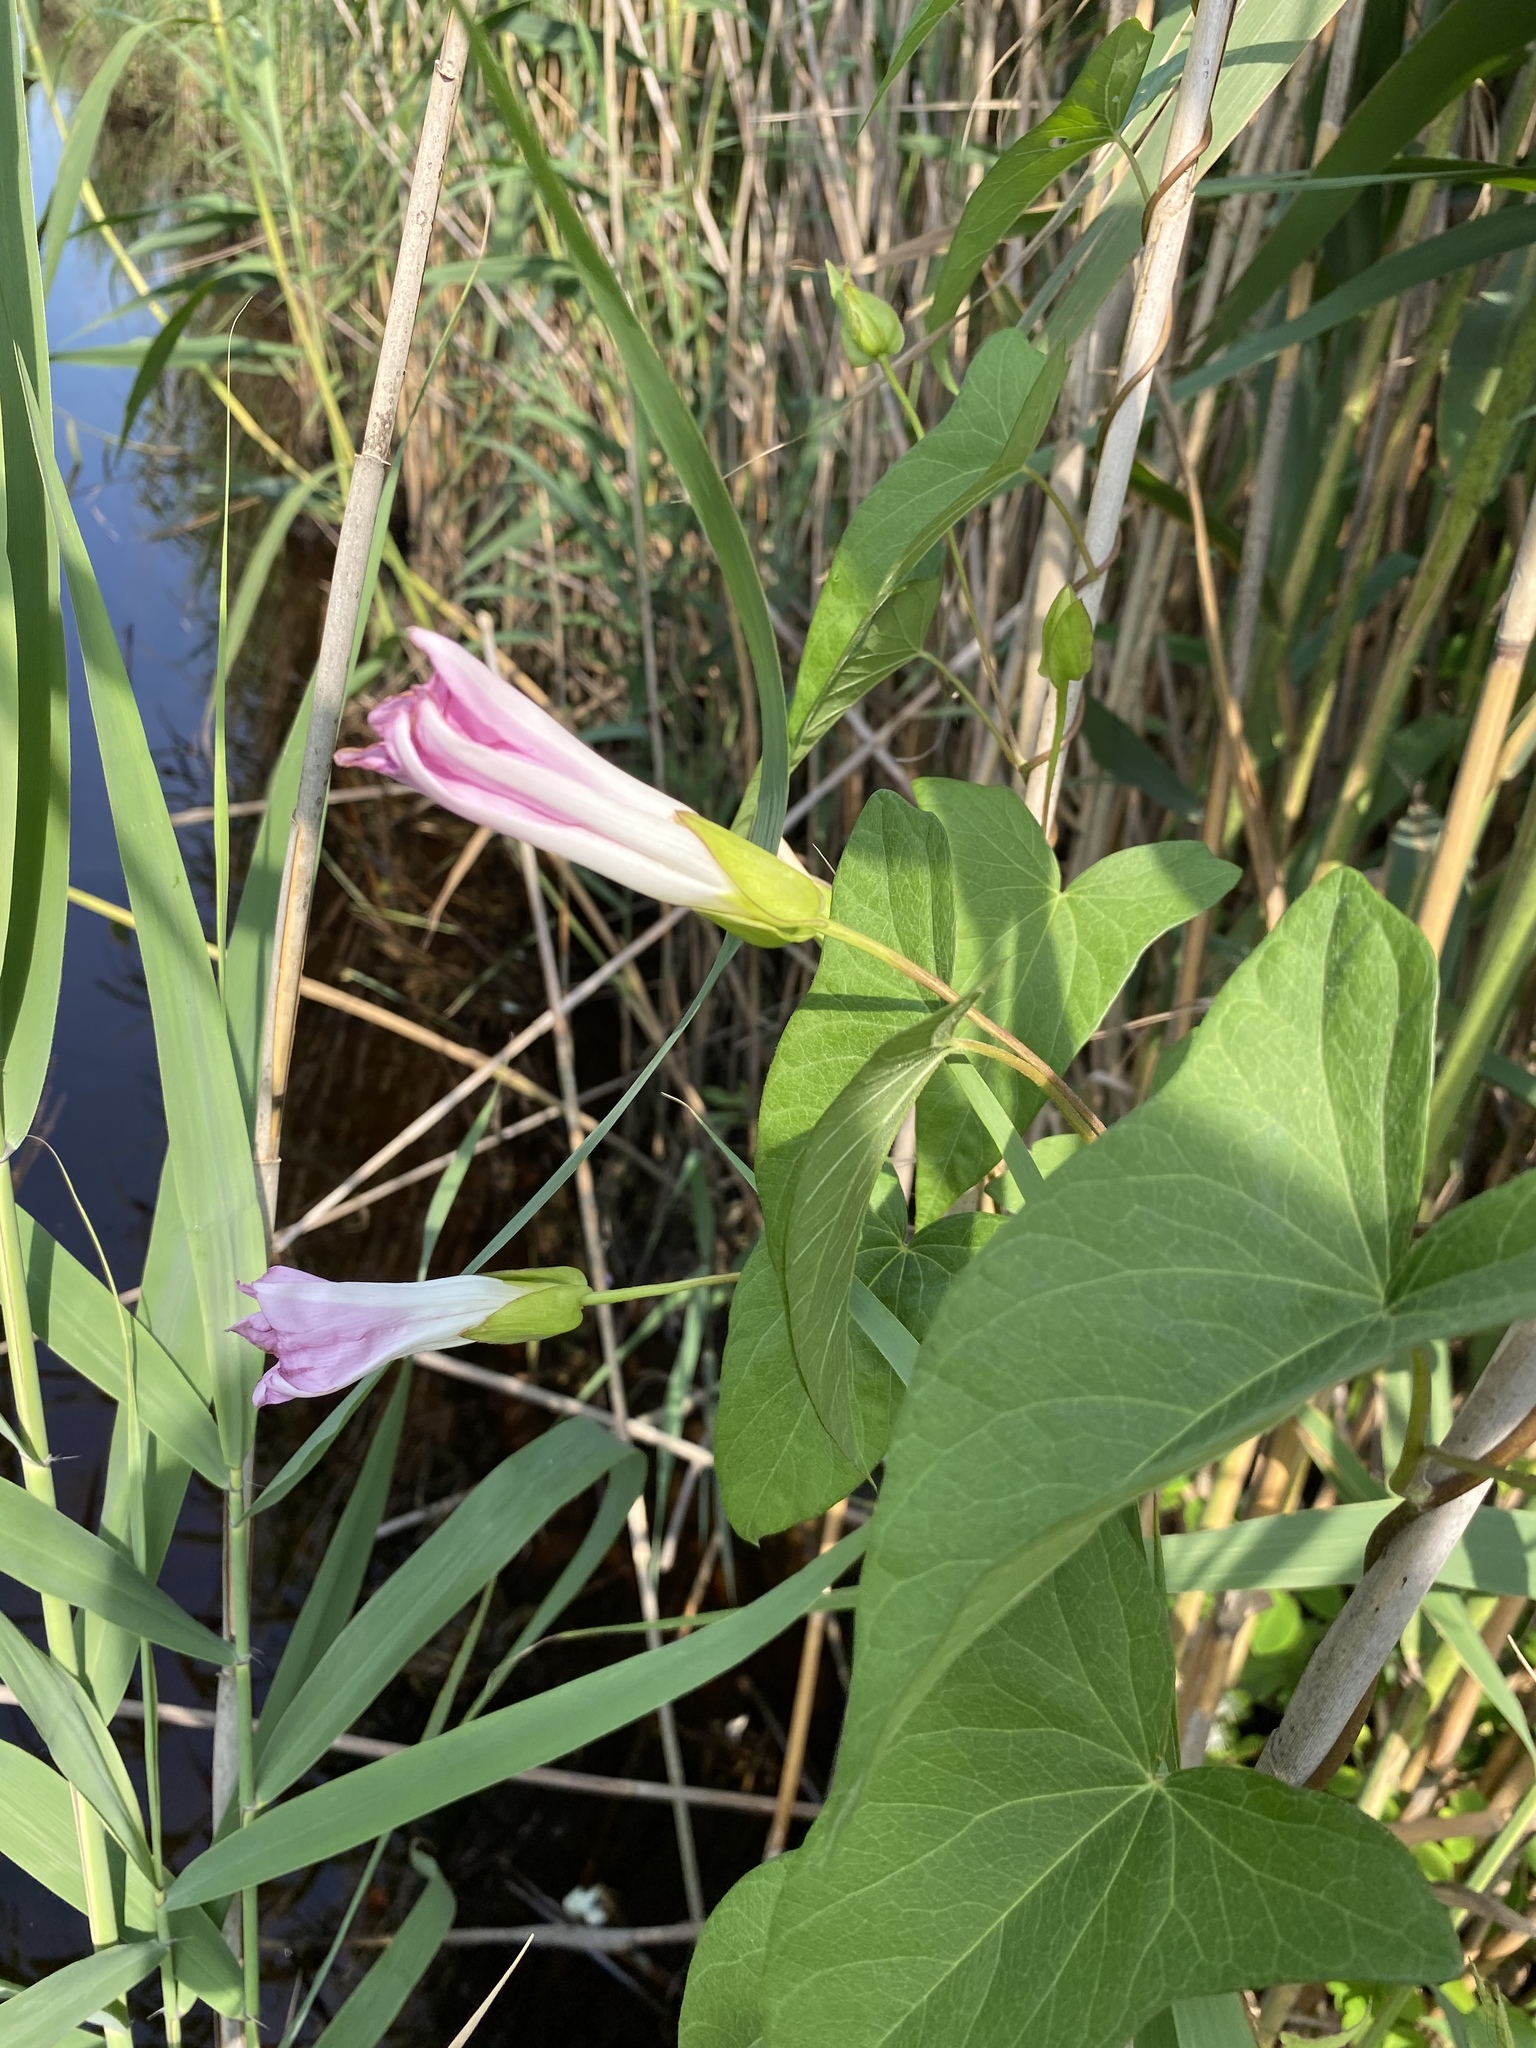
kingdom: Plantae
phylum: Tracheophyta
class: Magnoliopsida
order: Solanales
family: Convolvulaceae
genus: Calystegia
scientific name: Calystegia sepium
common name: Hedge bindweed
